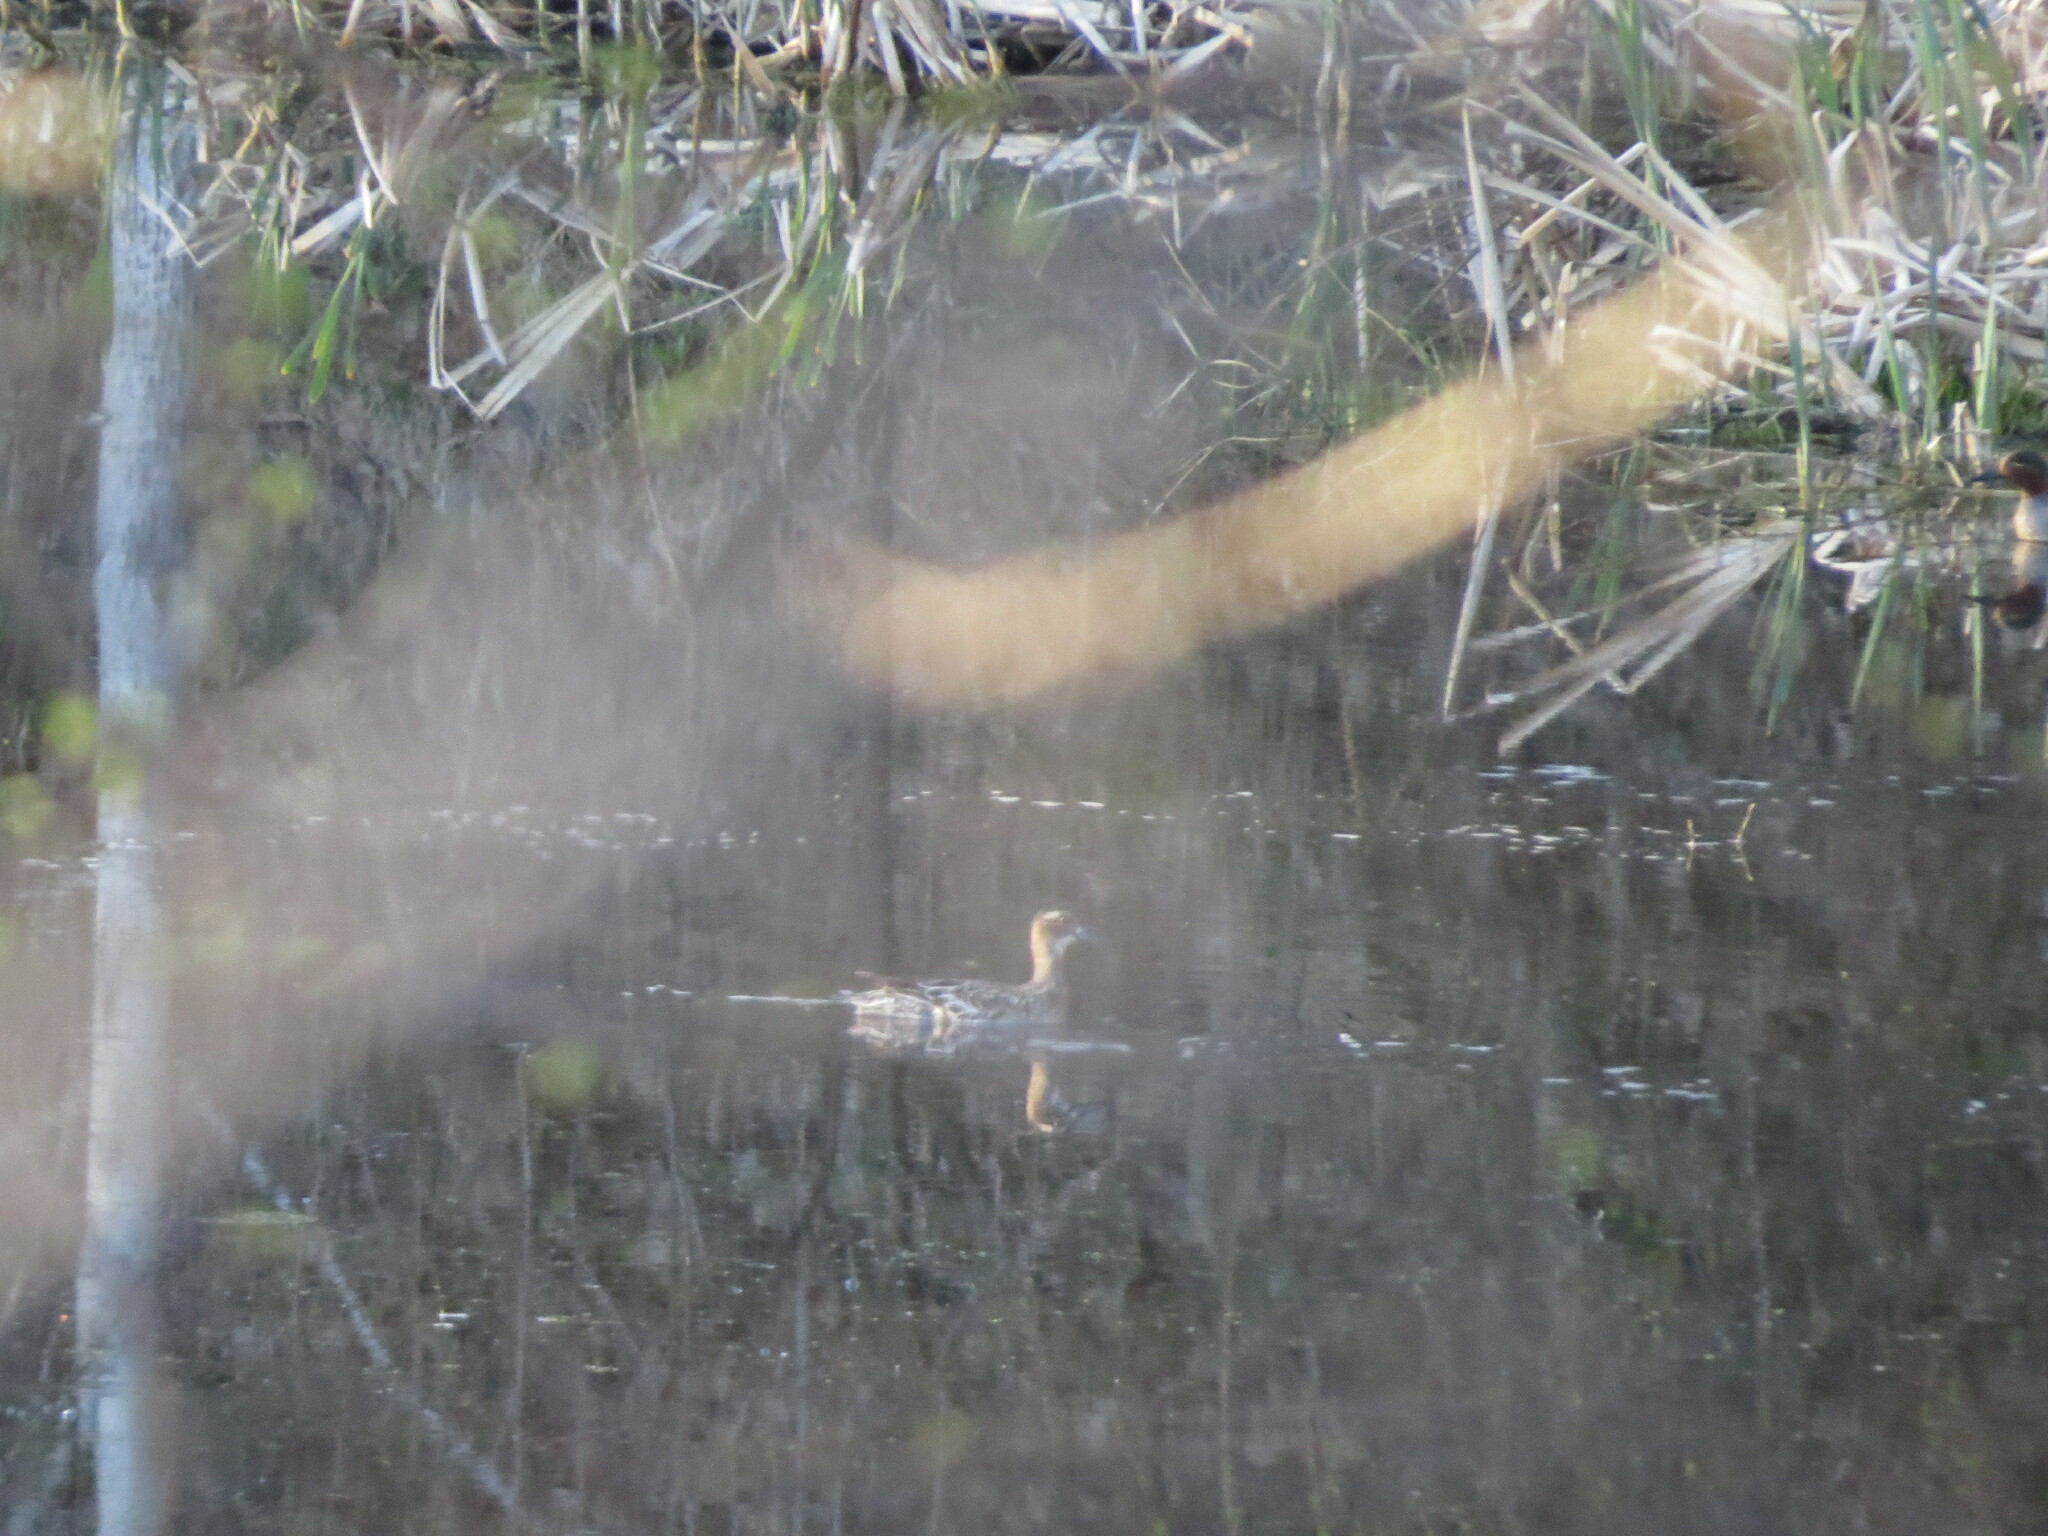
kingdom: Animalia
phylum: Chordata
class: Aves
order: Anseriformes
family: Anatidae
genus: Spatula
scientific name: Spatula querquedula
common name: Garganey
